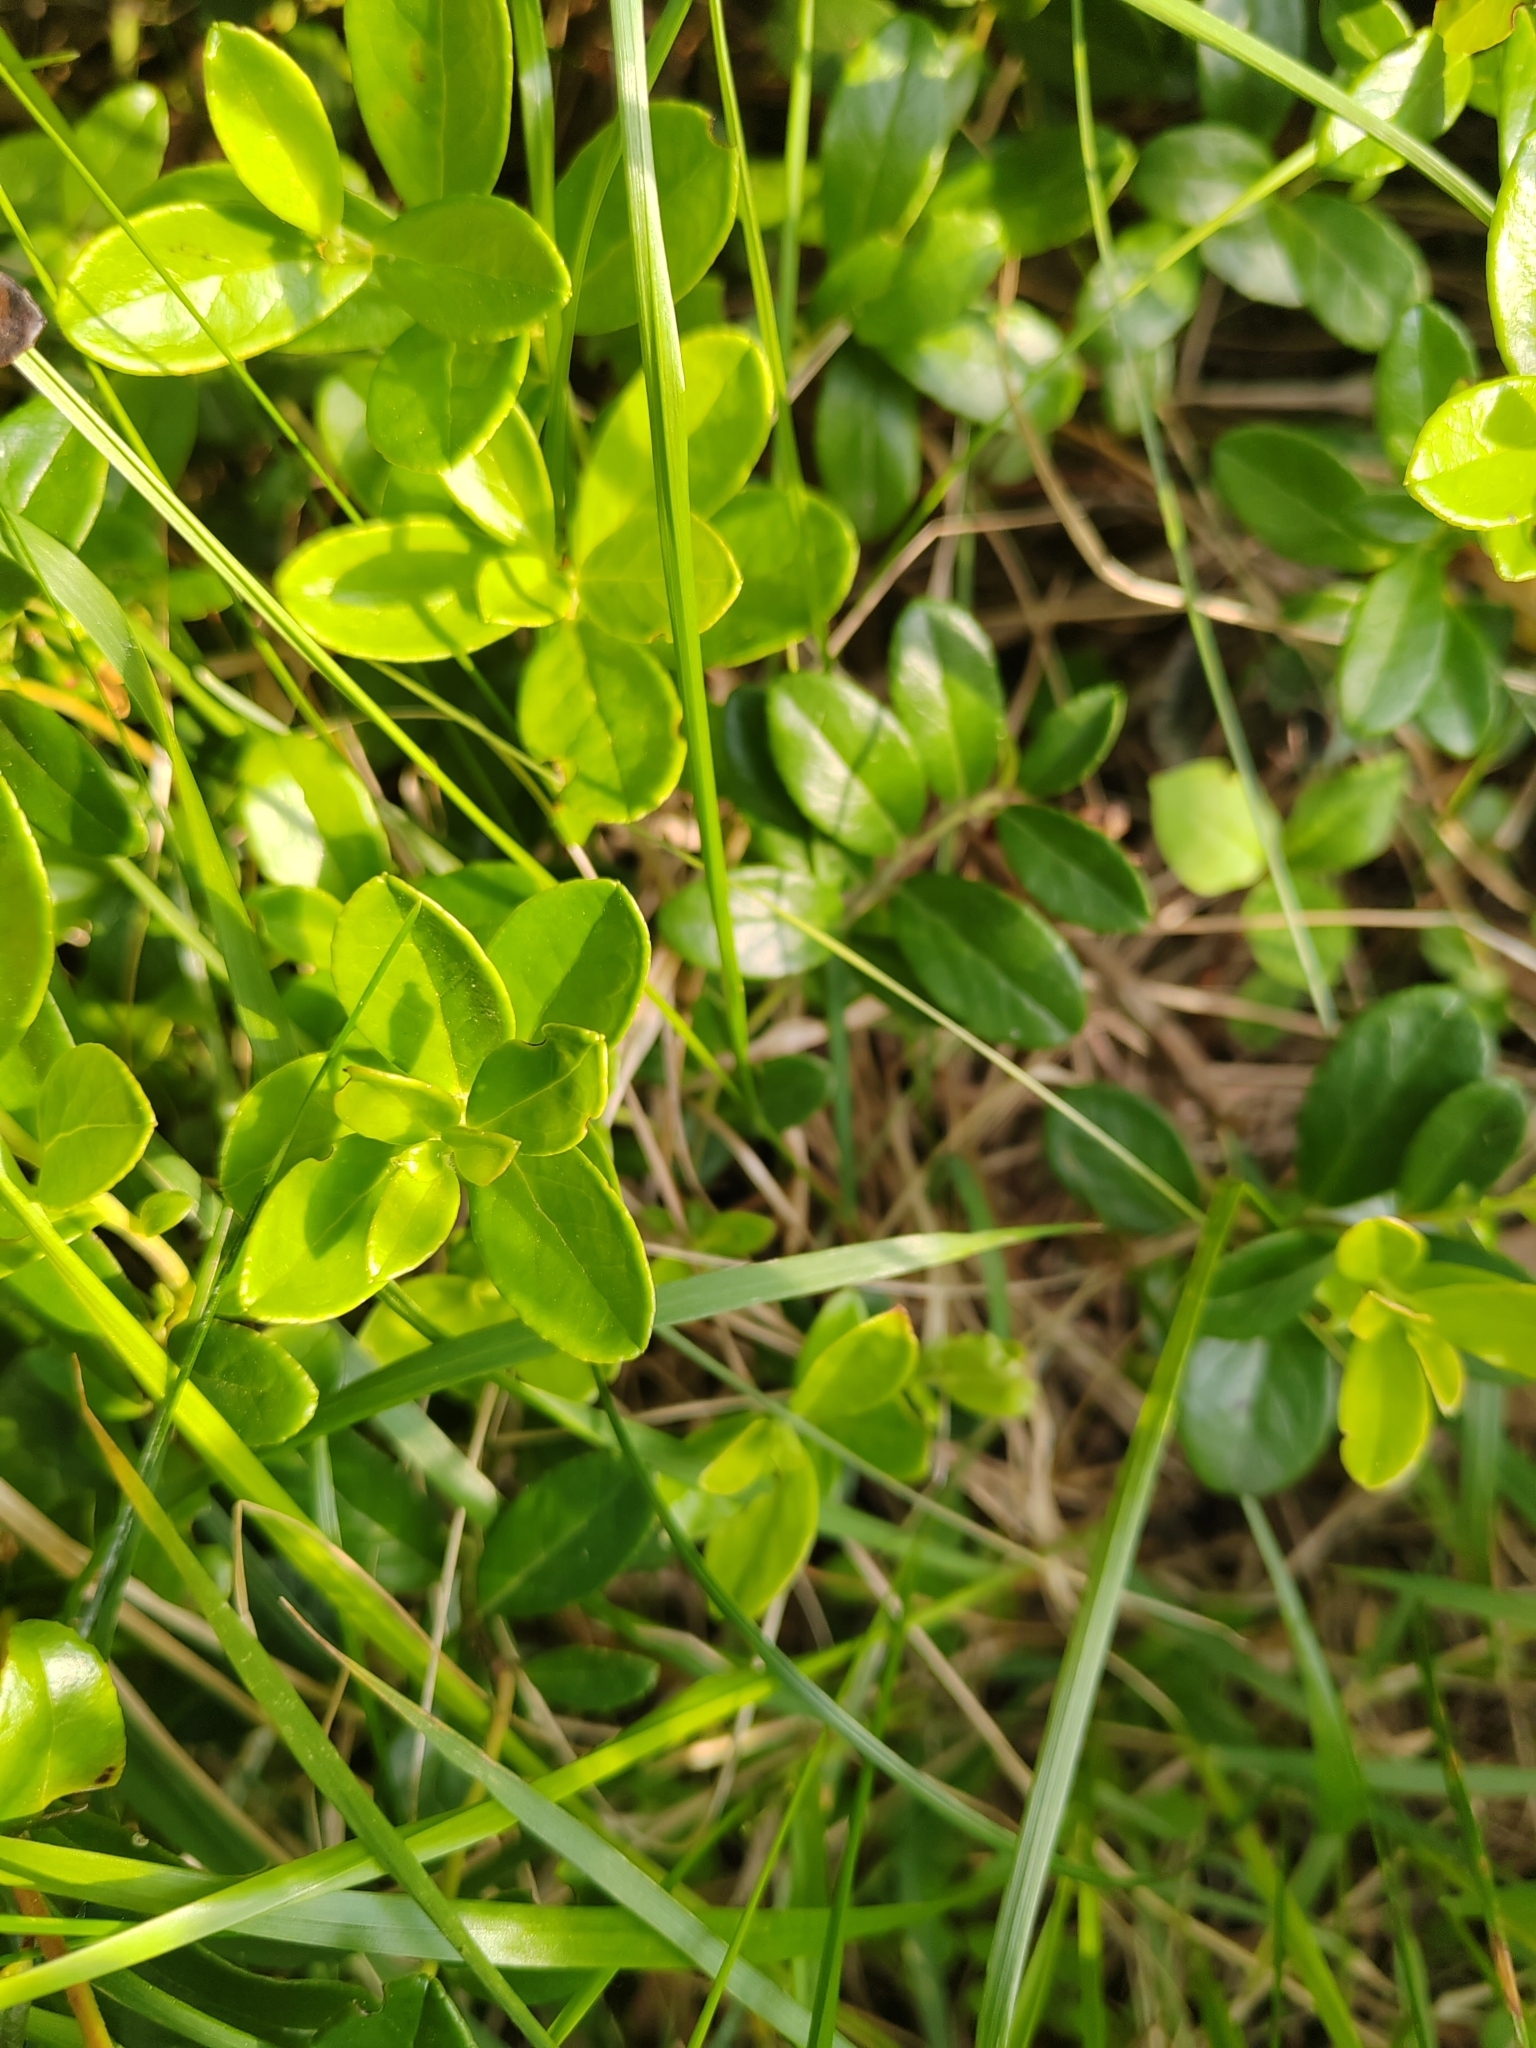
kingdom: Plantae
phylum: Tracheophyta
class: Magnoliopsida
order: Ericales
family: Ericaceae
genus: Vaccinium
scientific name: Vaccinium vitis-idaea
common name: Cowberry
